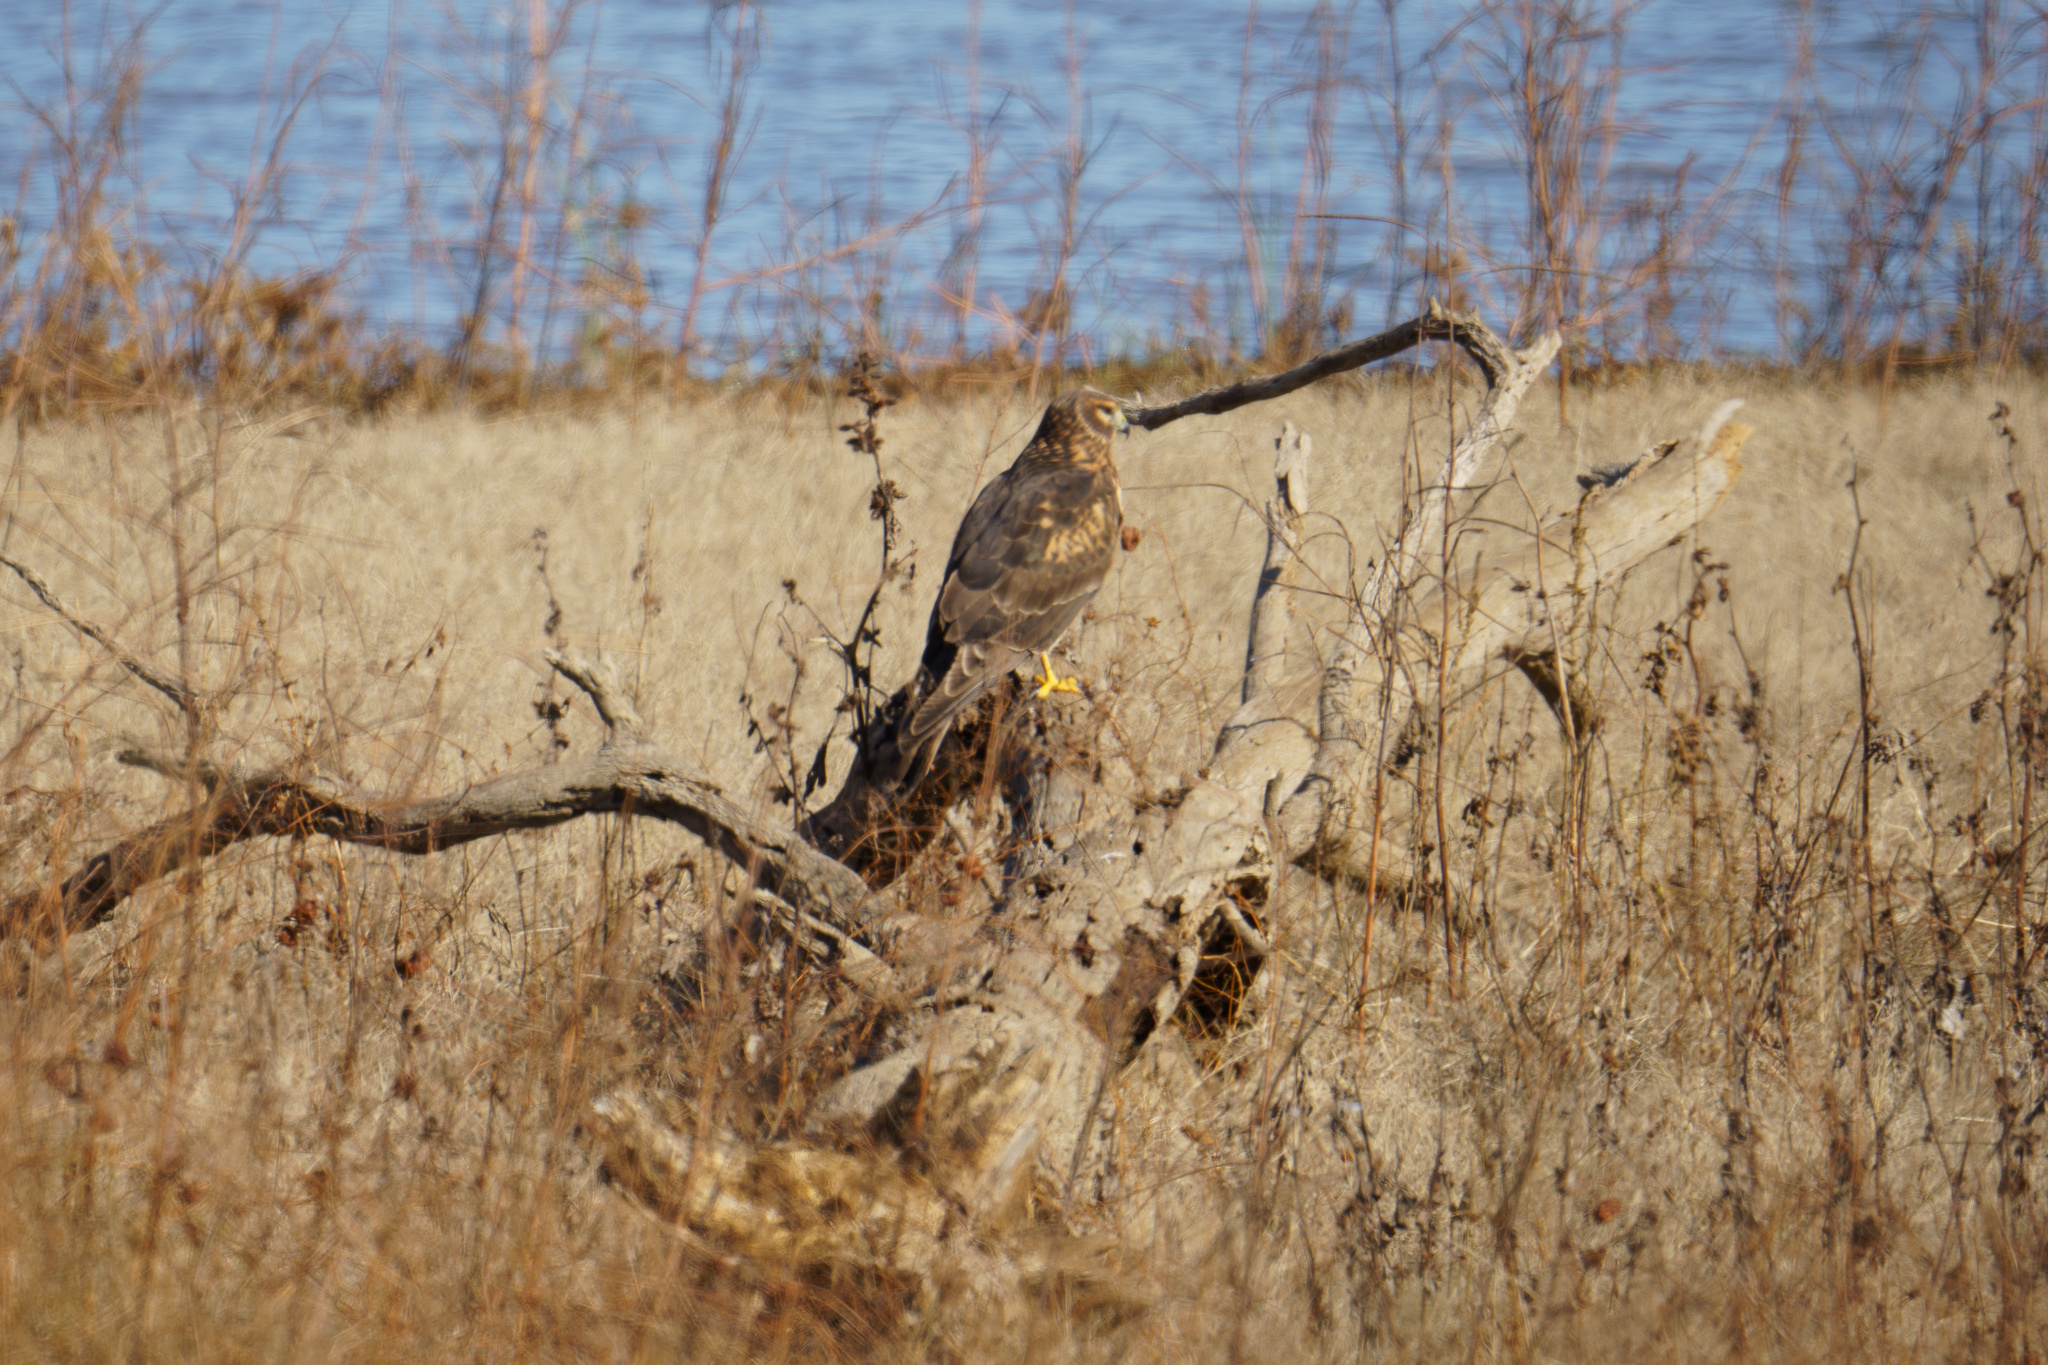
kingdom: Animalia
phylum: Chordata
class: Aves
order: Accipitriformes
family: Accipitridae
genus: Circus
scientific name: Circus cyaneus
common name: Hen harrier
